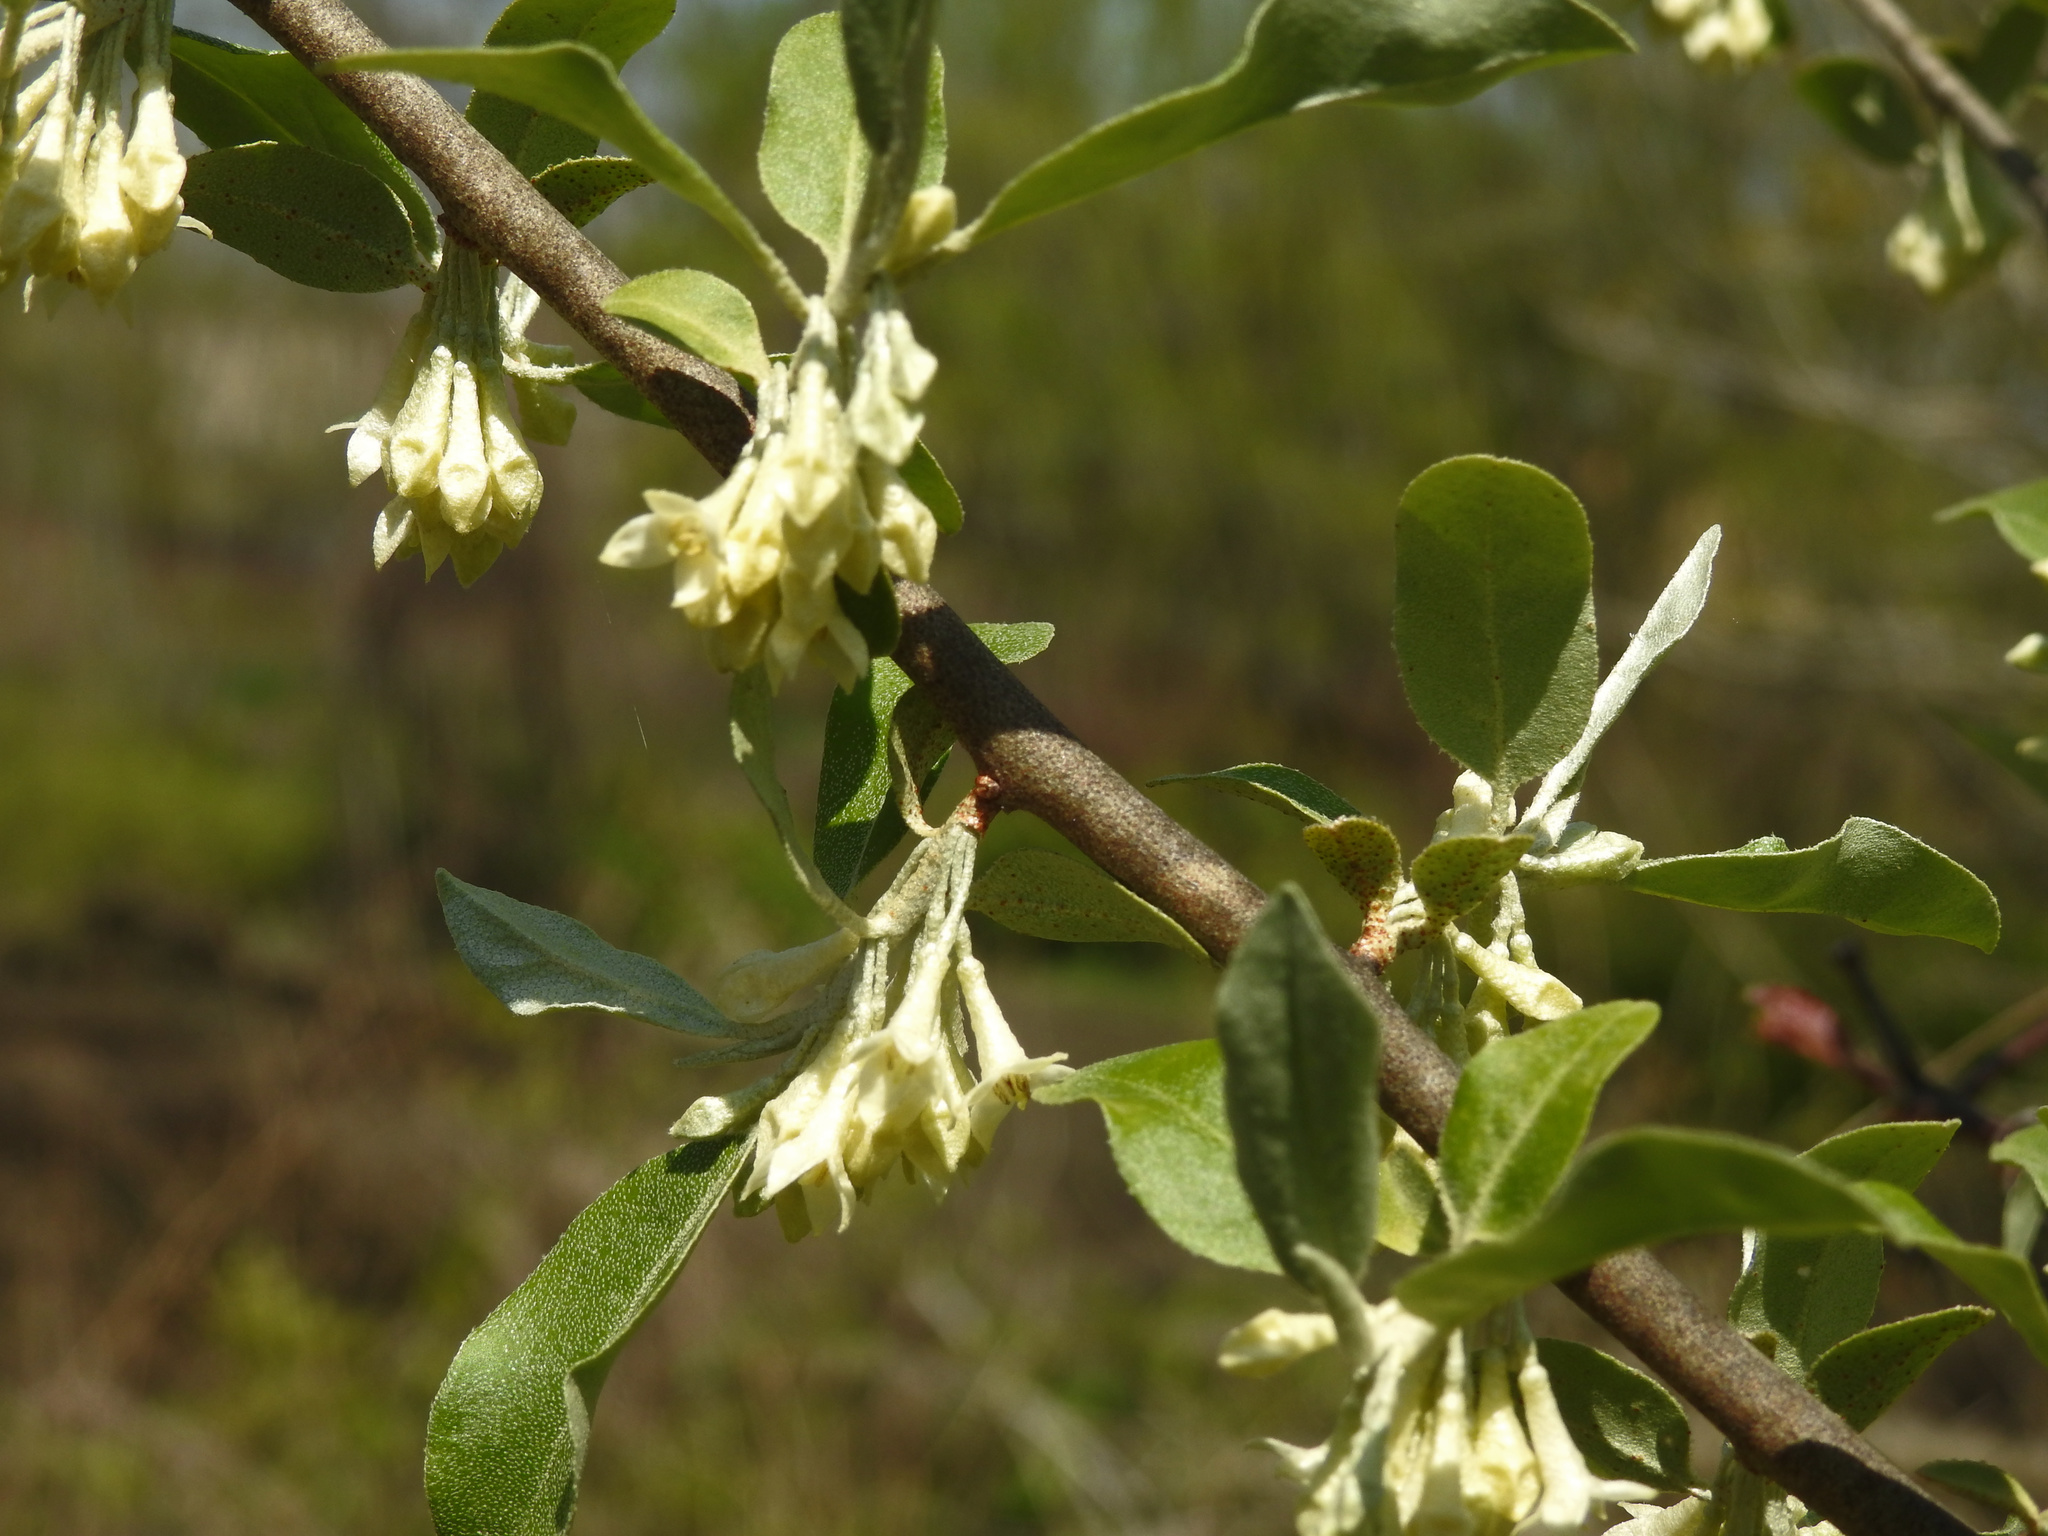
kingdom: Plantae
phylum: Tracheophyta
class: Magnoliopsida
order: Rosales
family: Elaeagnaceae
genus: Elaeagnus
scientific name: Elaeagnus umbellata
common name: Autumn olive
